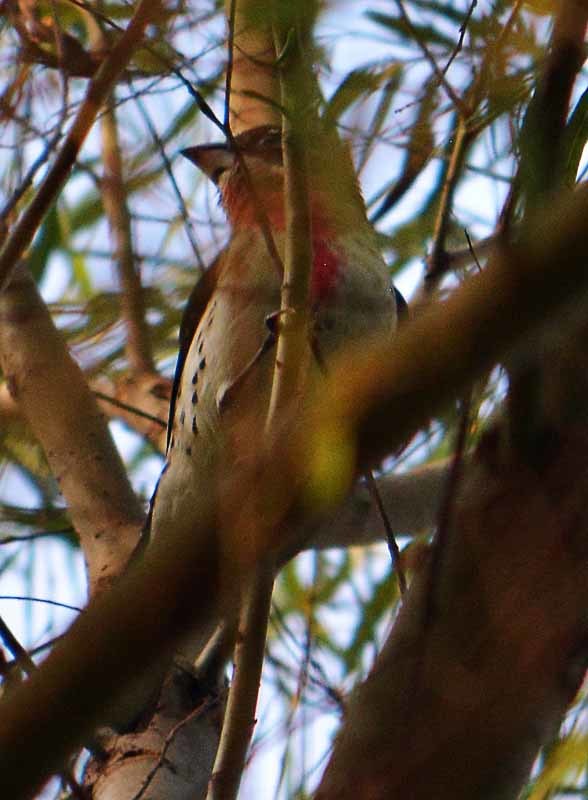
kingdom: Animalia
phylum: Chordata
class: Aves
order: Passeriformes
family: Cardinalidae
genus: Pheucticus
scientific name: Pheucticus ludovicianus
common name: Rose-breasted grosbeak
